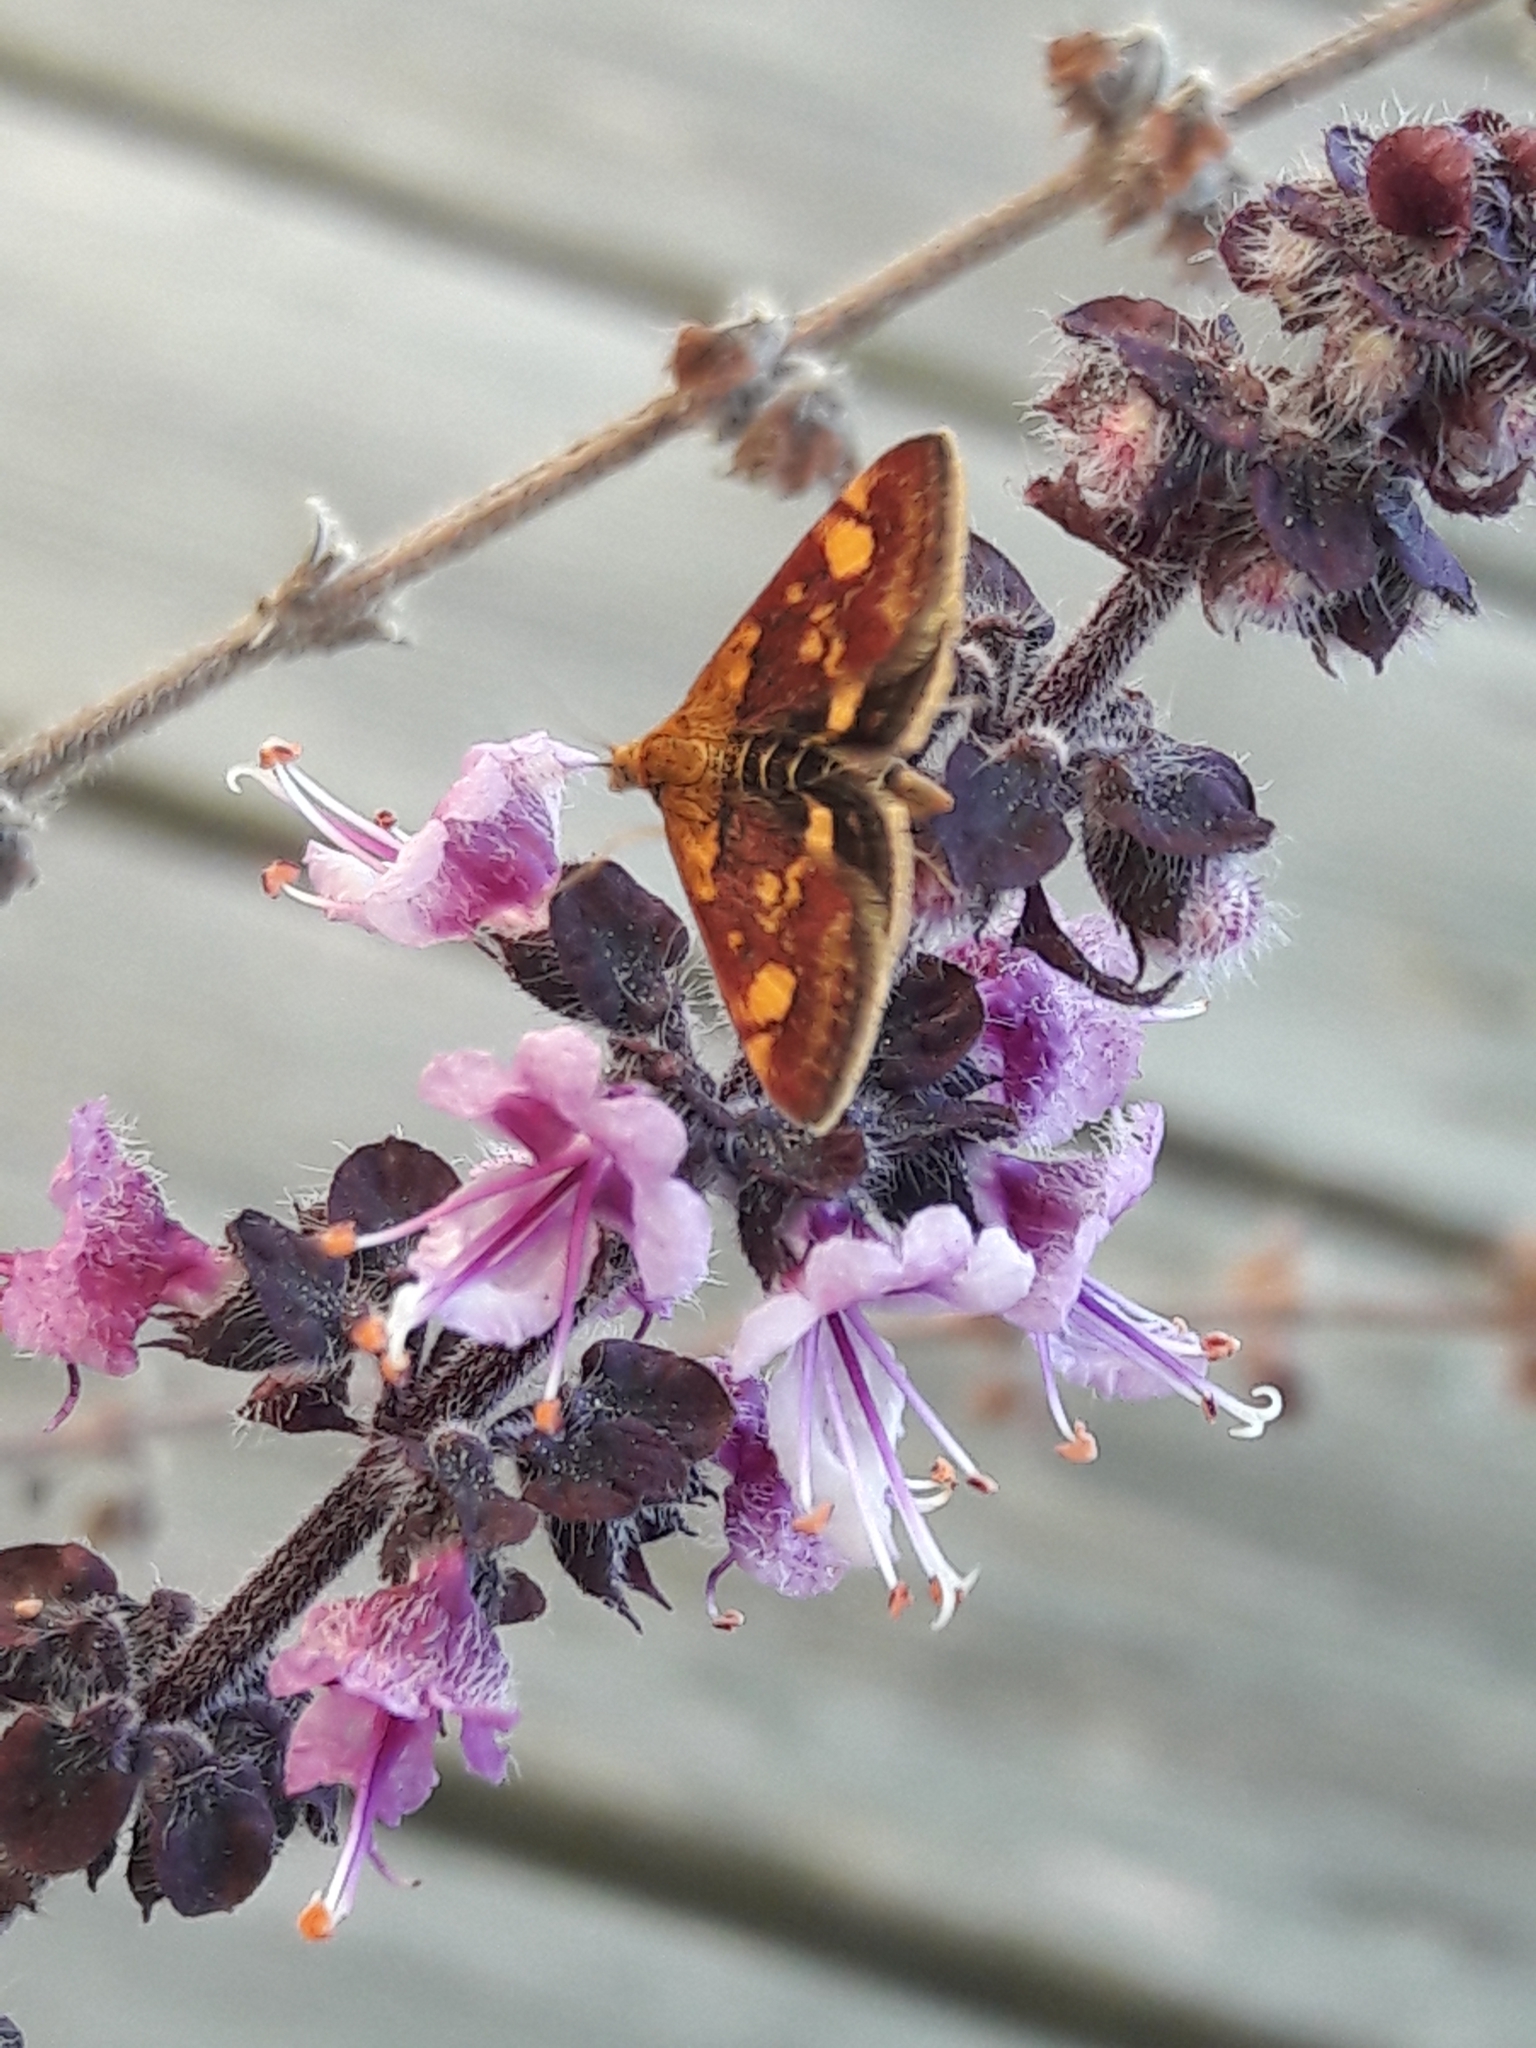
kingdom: Animalia
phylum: Arthropoda
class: Insecta
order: Lepidoptera
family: Crambidae
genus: Pyrausta
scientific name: Pyrausta aurata
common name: Small purple & gold
